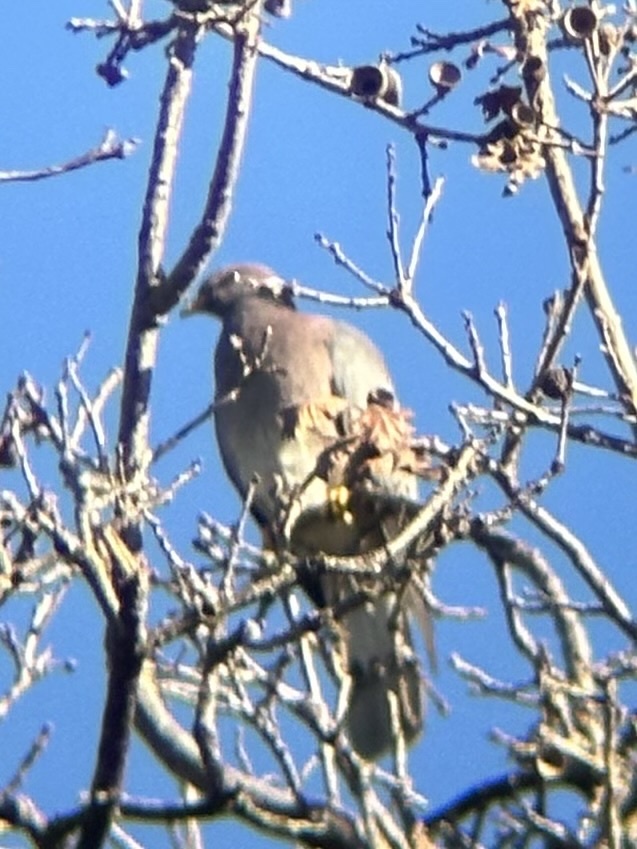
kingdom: Animalia
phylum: Chordata
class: Aves
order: Columbiformes
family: Columbidae
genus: Patagioenas
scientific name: Patagioenas fasciata
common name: Band-tailed pigeon
